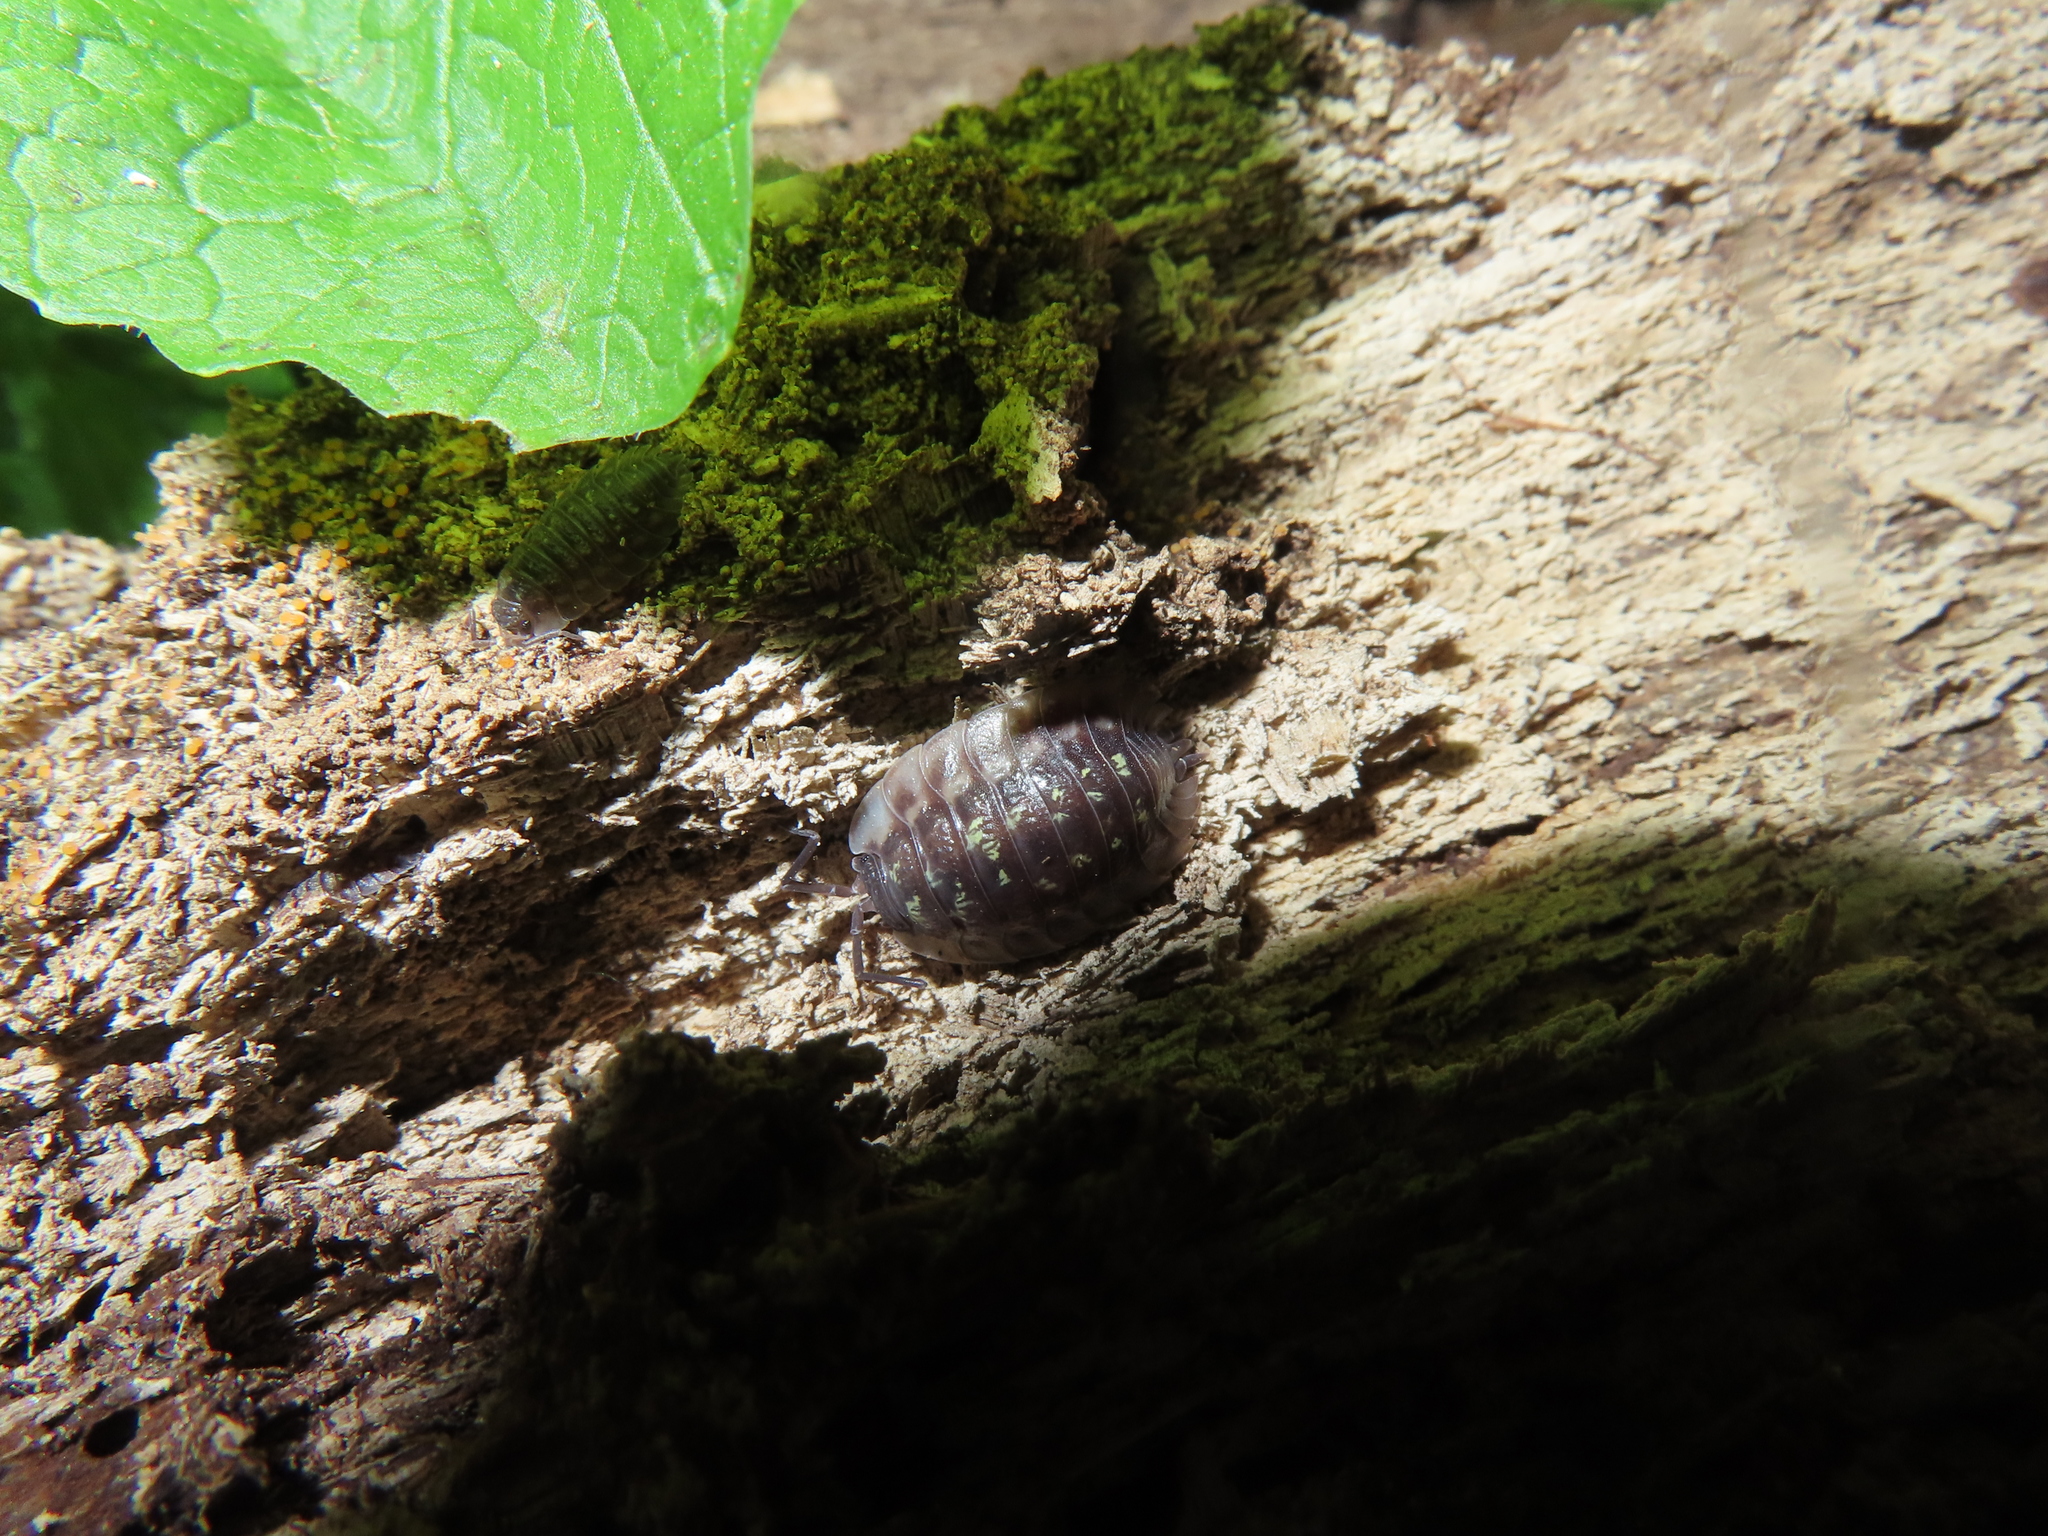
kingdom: Animalia
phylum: Arthropoda
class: Malacostraca
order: Isopoda
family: Oniscidae
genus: Oniscus
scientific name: Oniscus asellus
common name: Common shiny woodlouse
